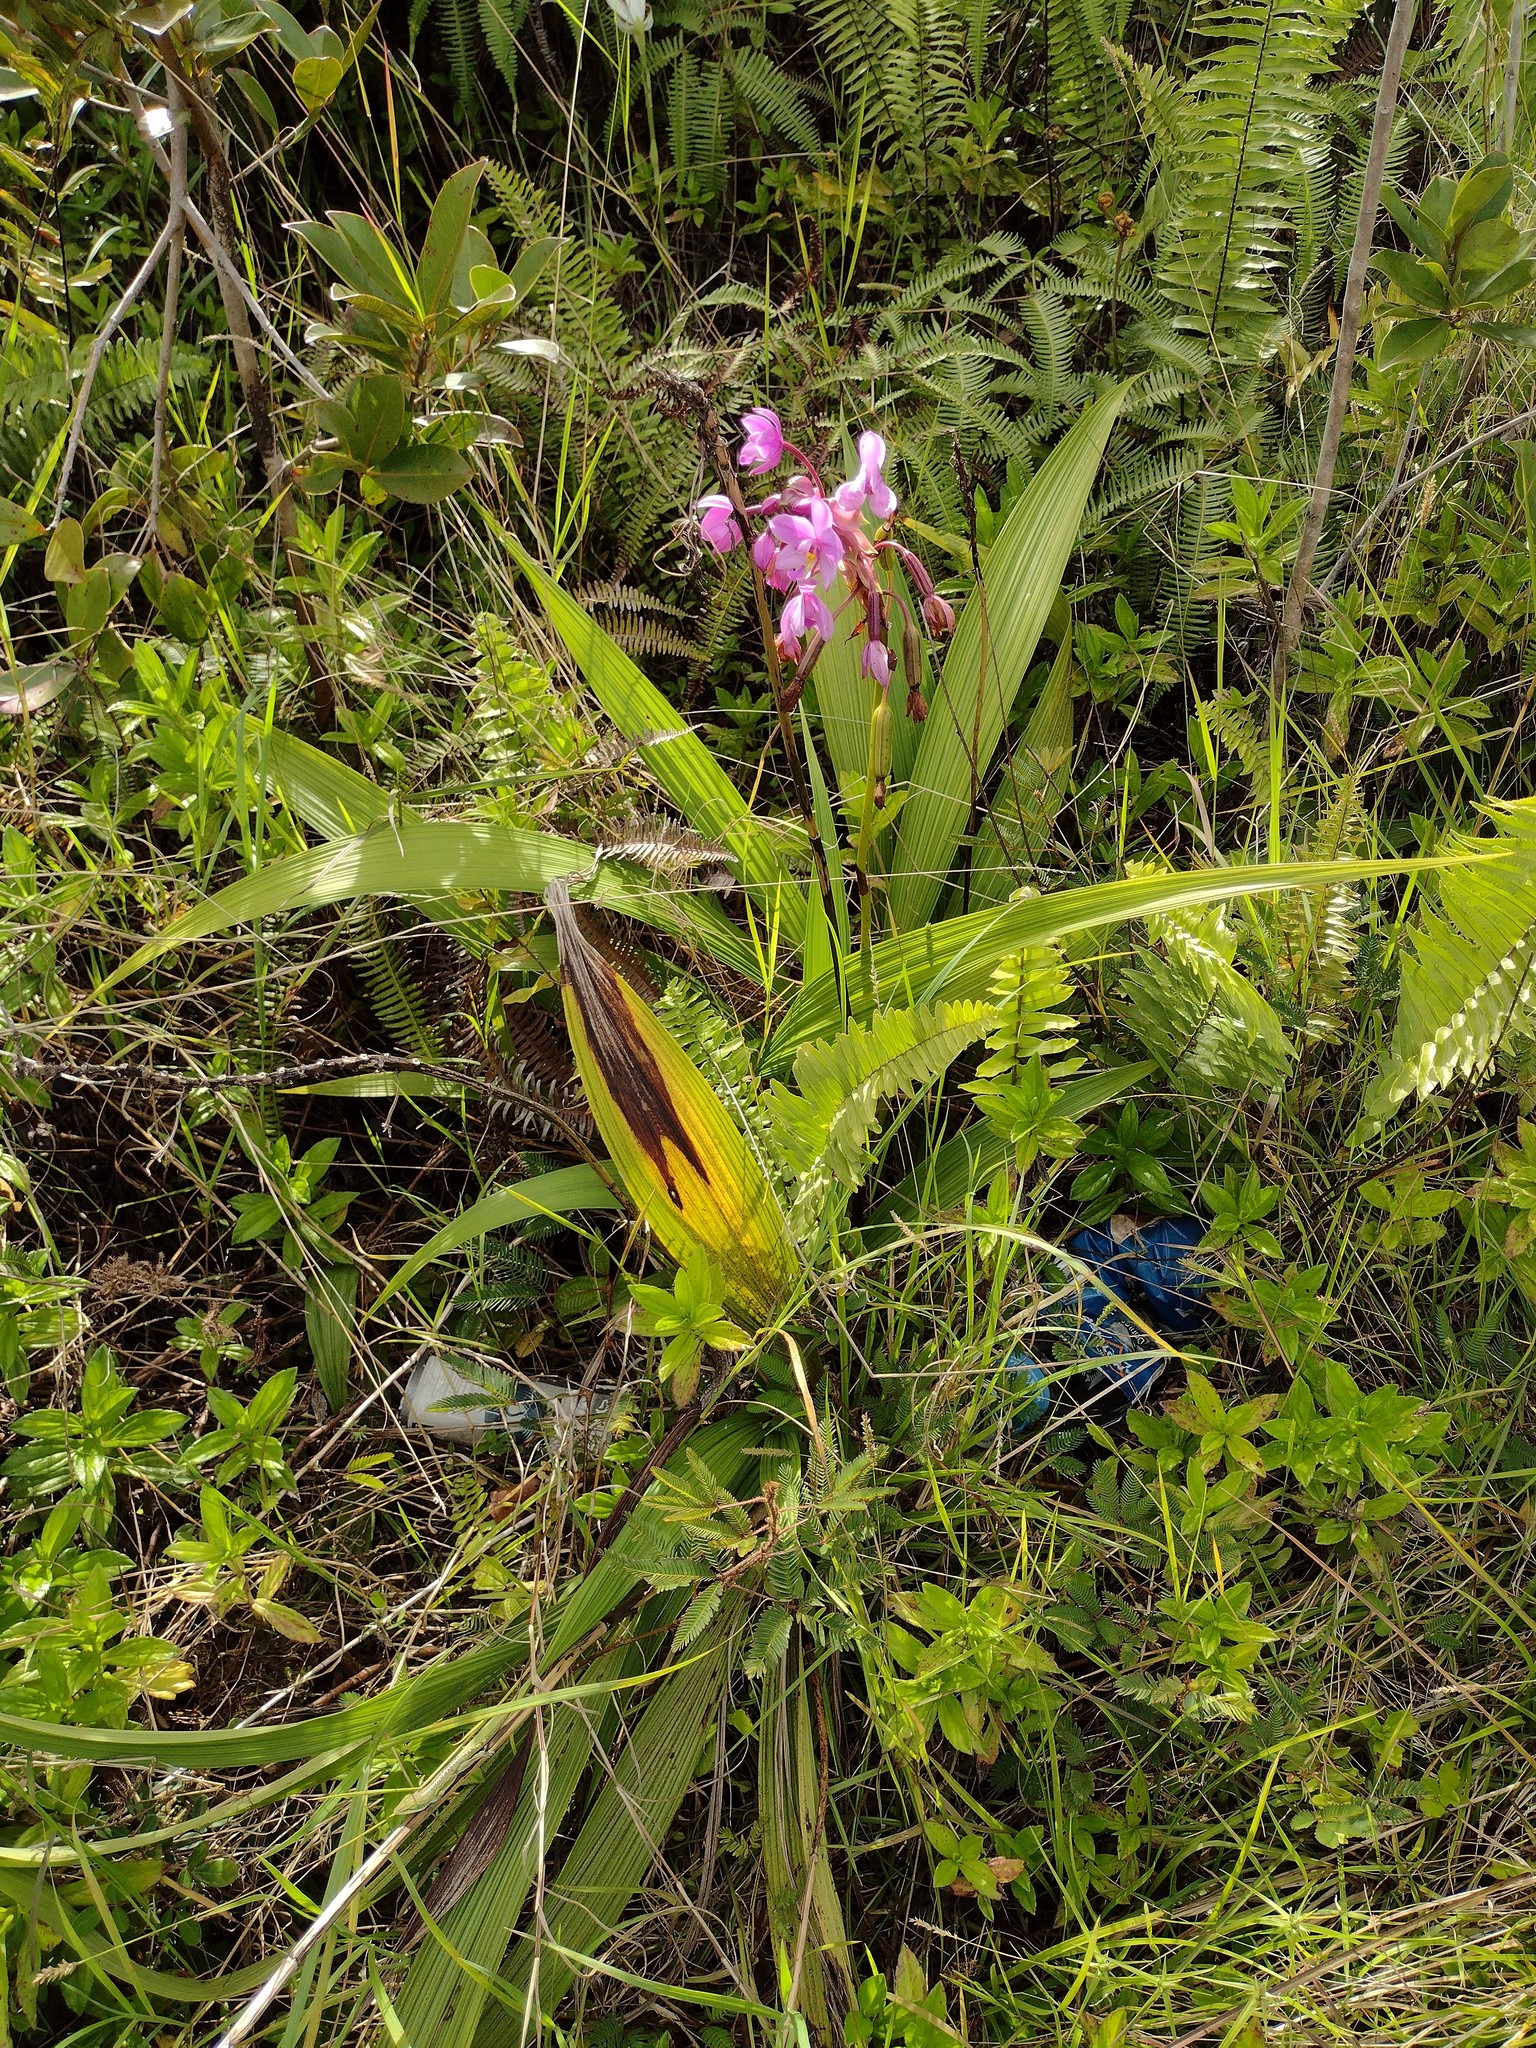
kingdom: Plantae
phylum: Tracheophyta
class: Liliopsida
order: Asparagales
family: Orchidaceae
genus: Spathoglottis
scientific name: Spathoglottis plicata
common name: Philippine ground orchid
